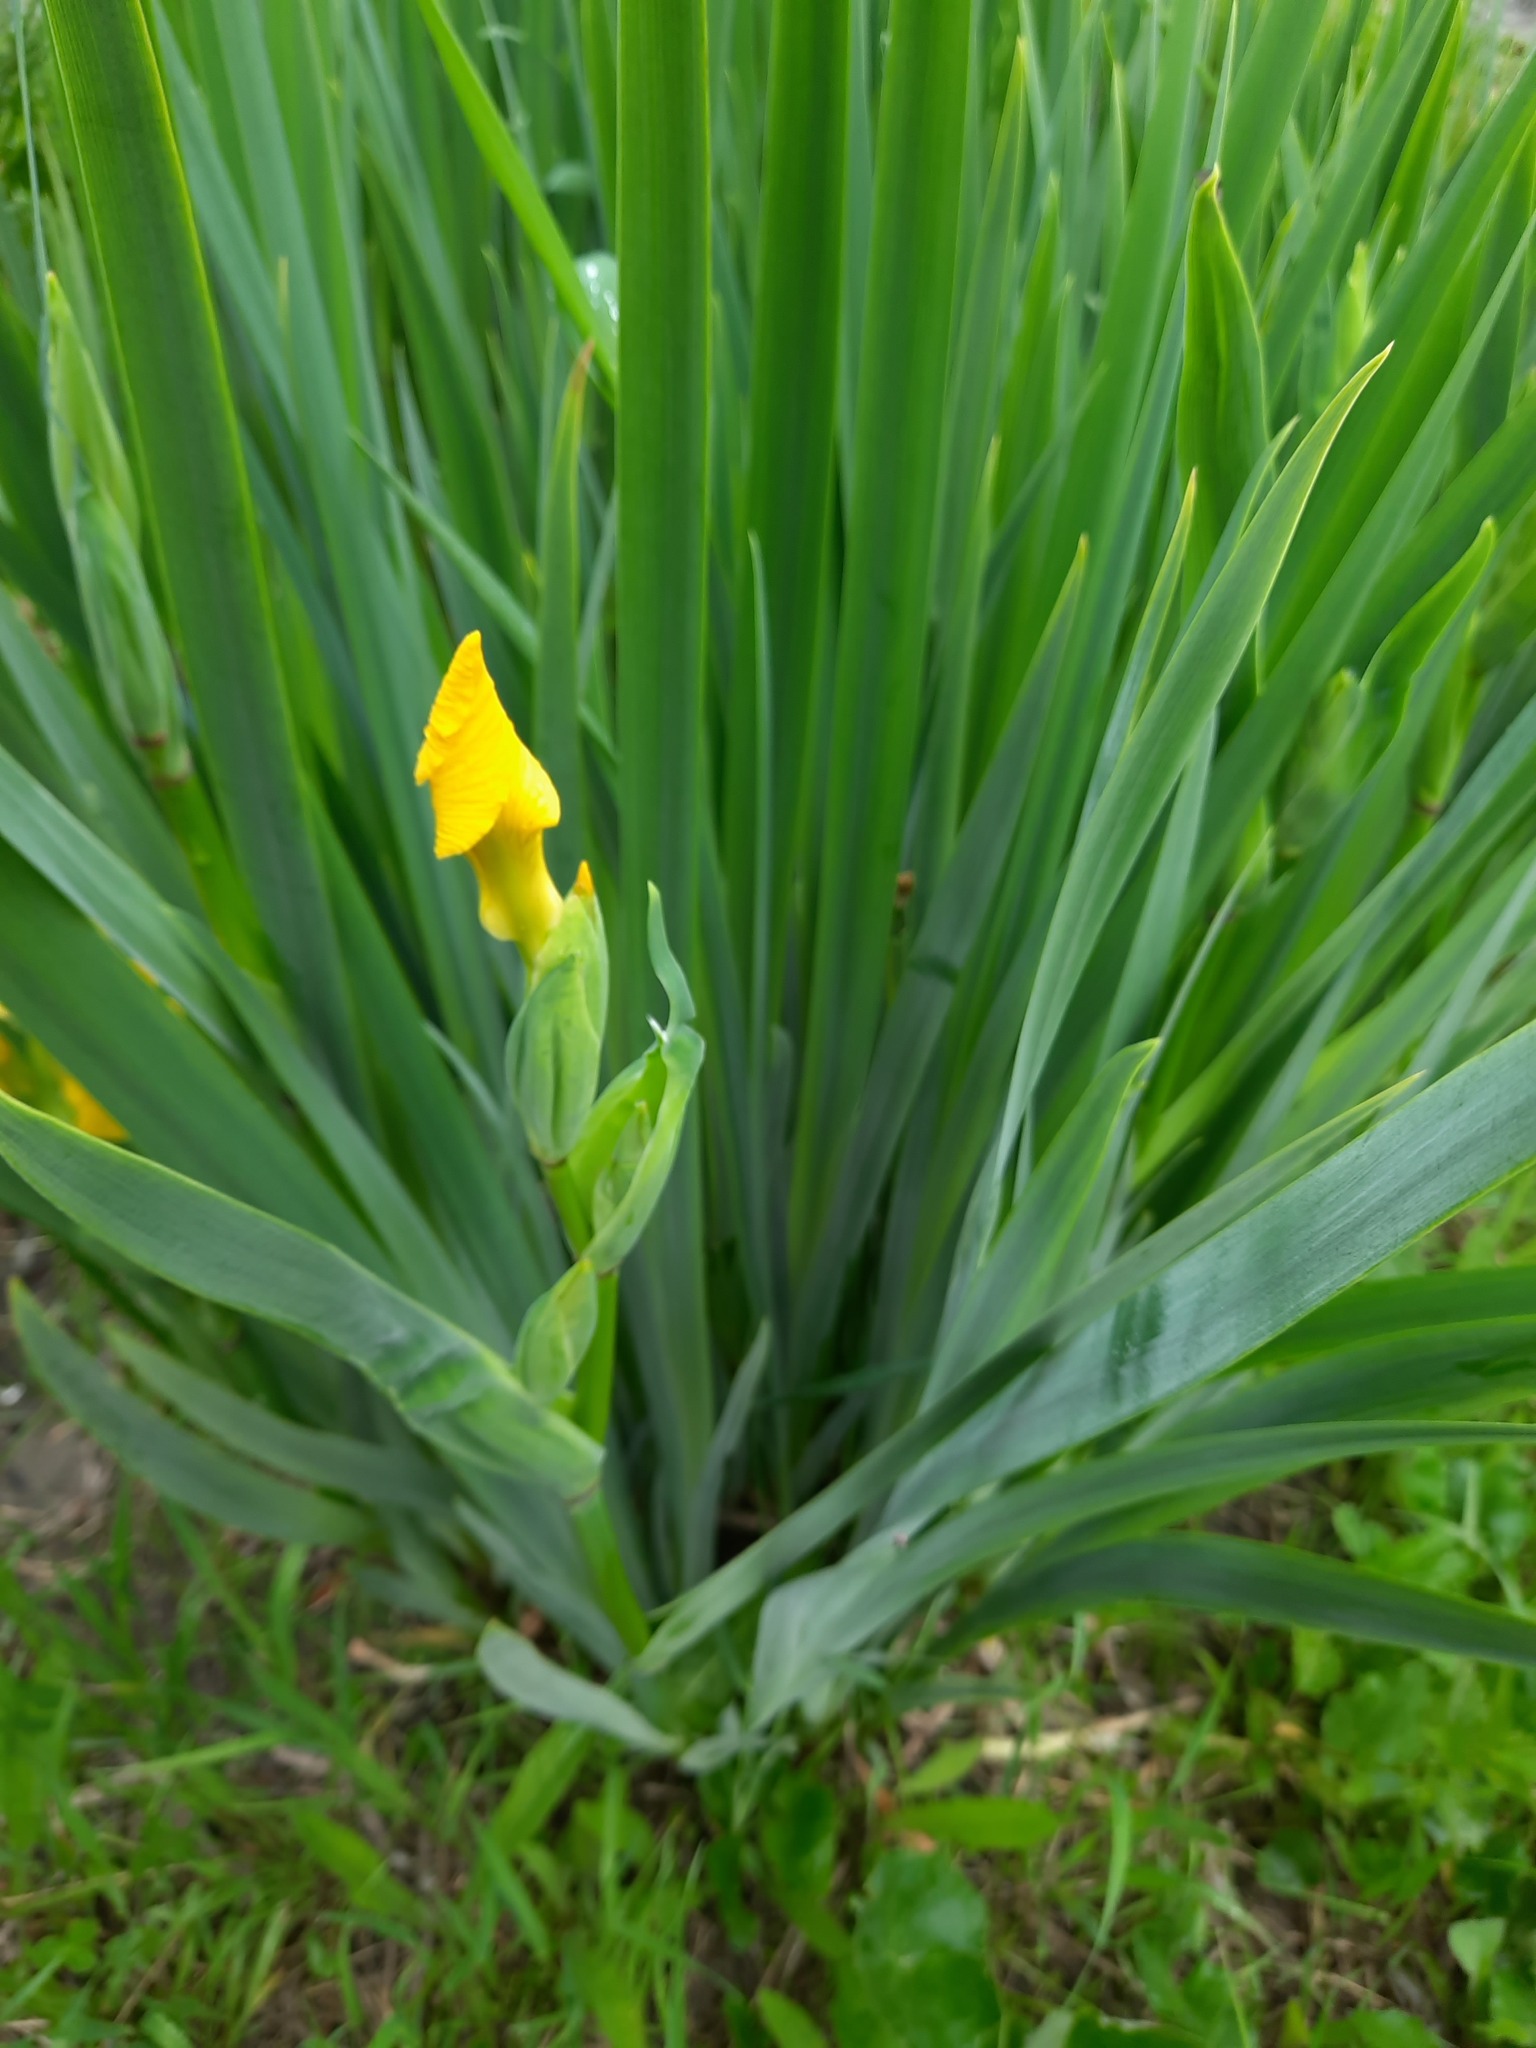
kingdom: Plantae
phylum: Tracheophyta
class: Liliopsida
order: Asparagales
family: Iridaceae
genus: Iris
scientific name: Iris pseudacorus
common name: Yellow flag
